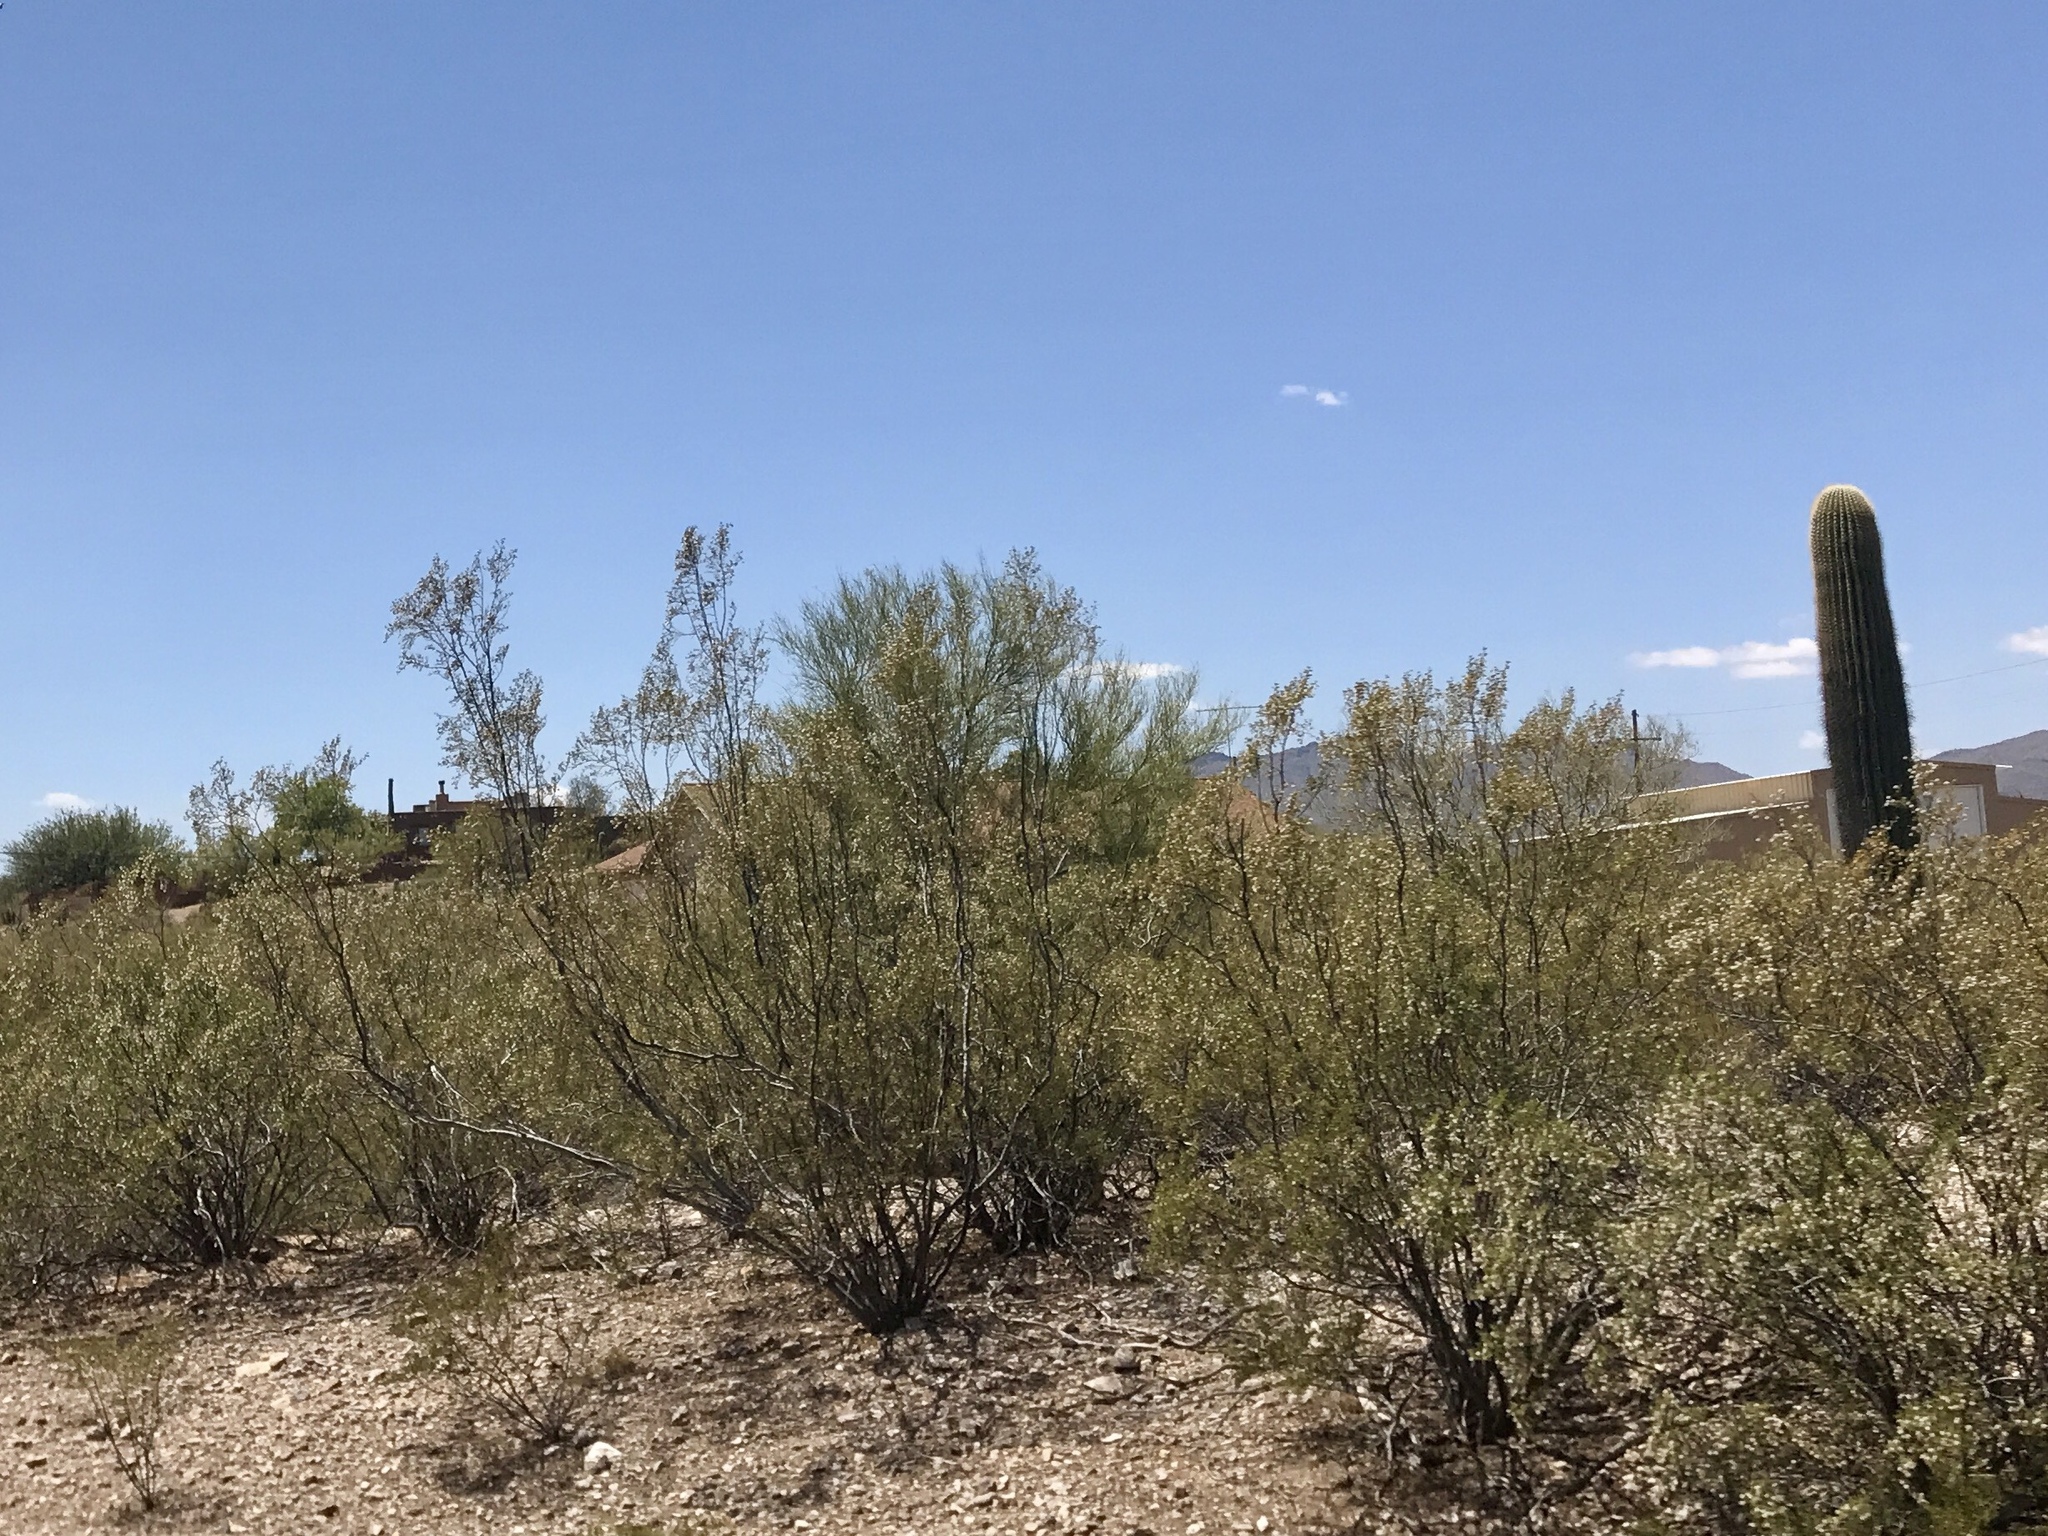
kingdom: Plantae
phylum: Tracheophyta
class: Magnoliopsida
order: Zygophyllales
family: Zygophyllaceae
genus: Larrea
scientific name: Larrea tridentata
